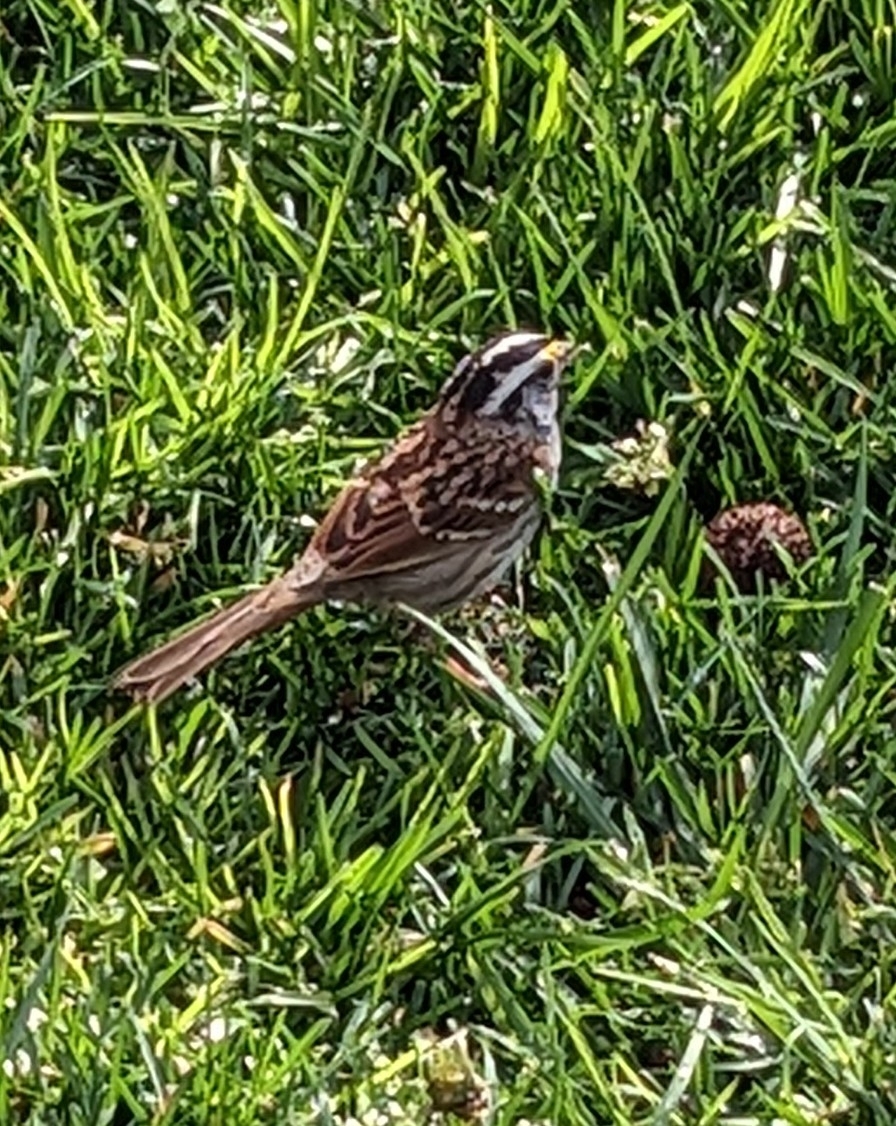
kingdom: Animalia
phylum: Chordata
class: Aves
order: Passeriformes
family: Passerellidae
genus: Zonotrichia
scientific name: Zonotrichia albicollis
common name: White-throated sparrow
